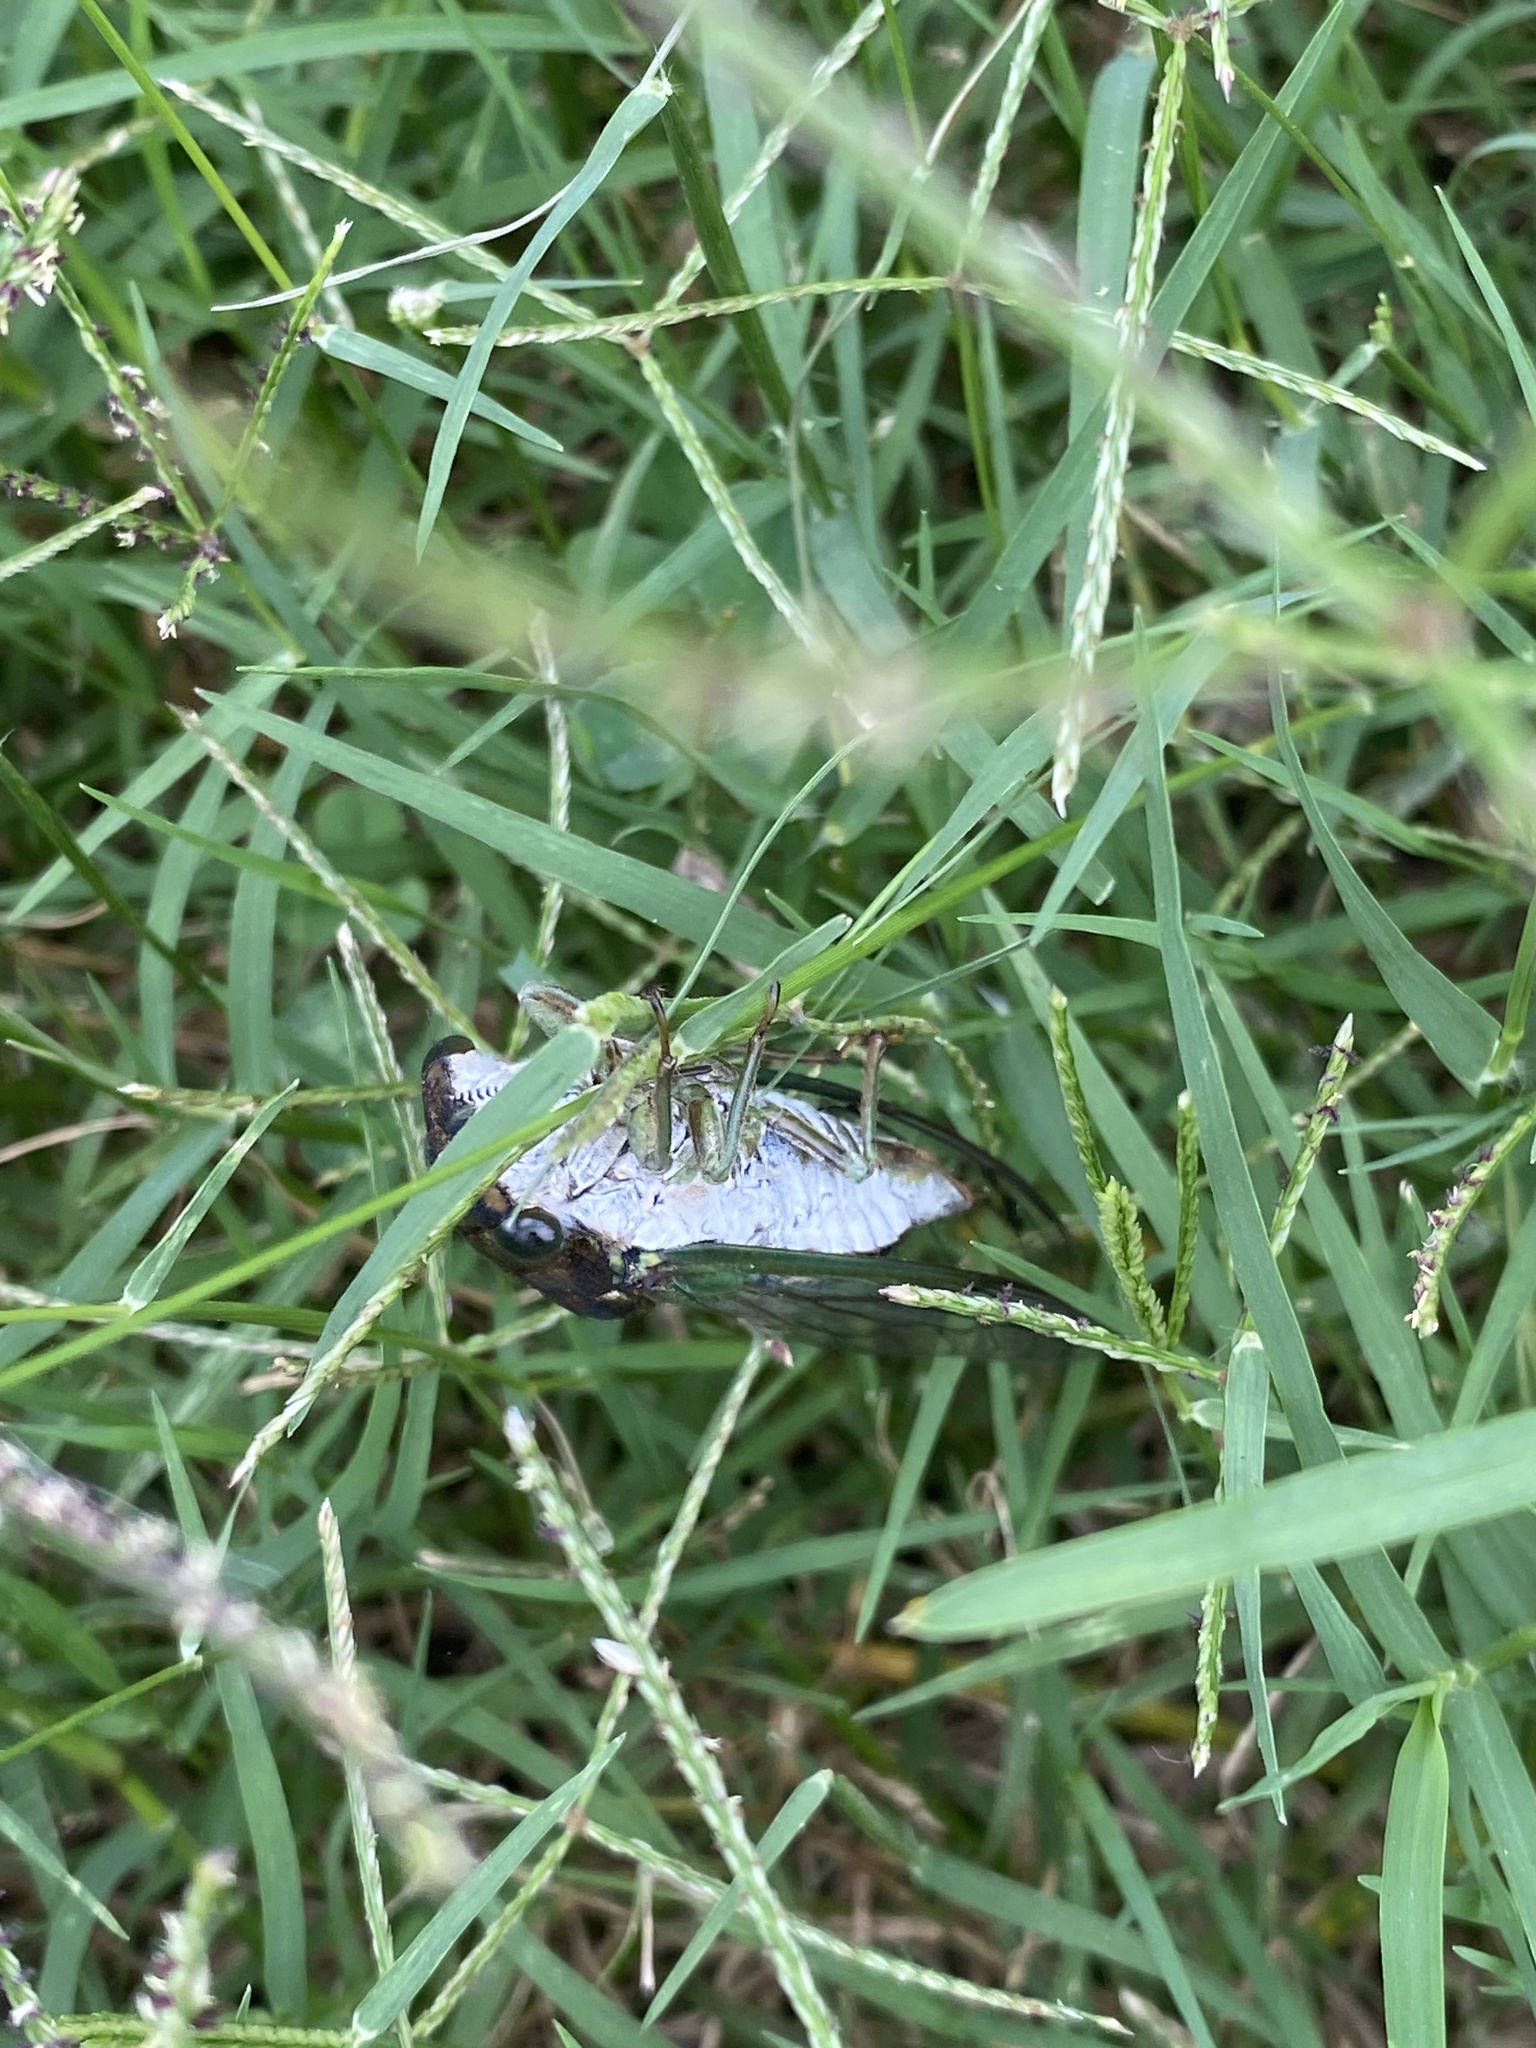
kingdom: Animalia
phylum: Arthropoda
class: Insecta
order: Hemiptera
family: Cicadidae
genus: Neotibicen
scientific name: Neotibicen canicularis
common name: God-day cicada
